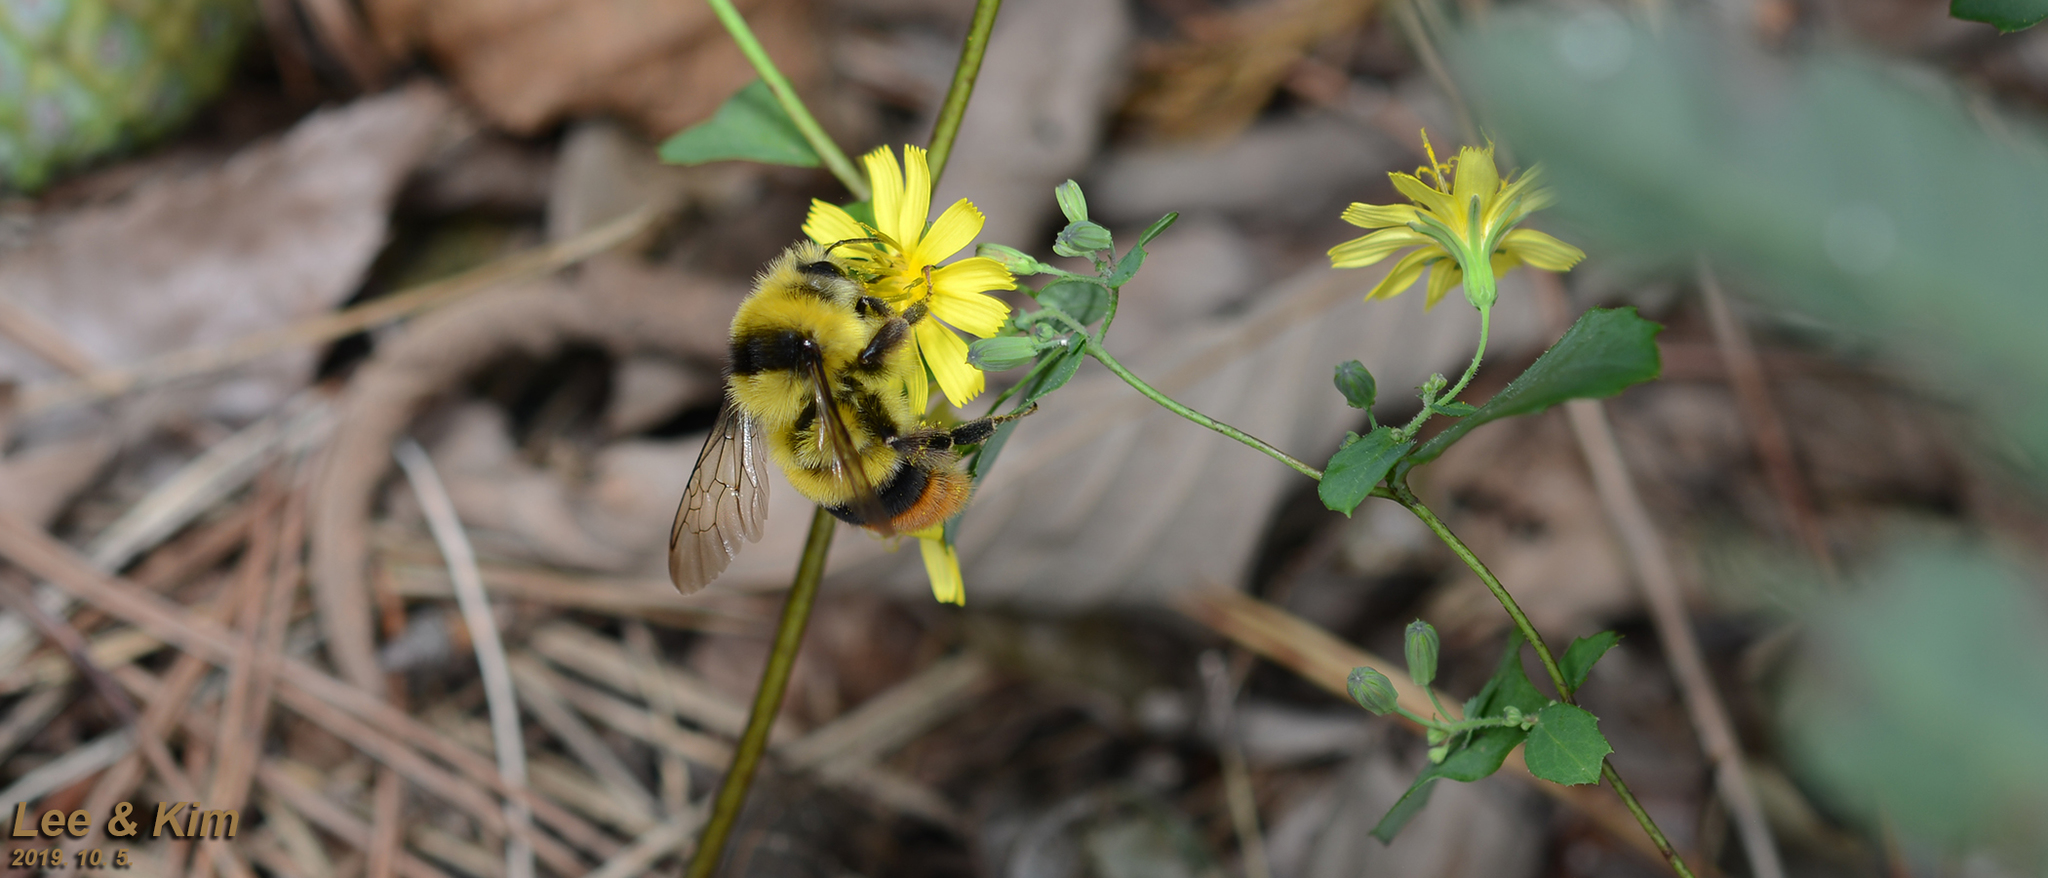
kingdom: Animalia
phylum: Arthropoda
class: Insecta
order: Hymenoptera
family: Apidae
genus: Bombus
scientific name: Bombus ignitus
